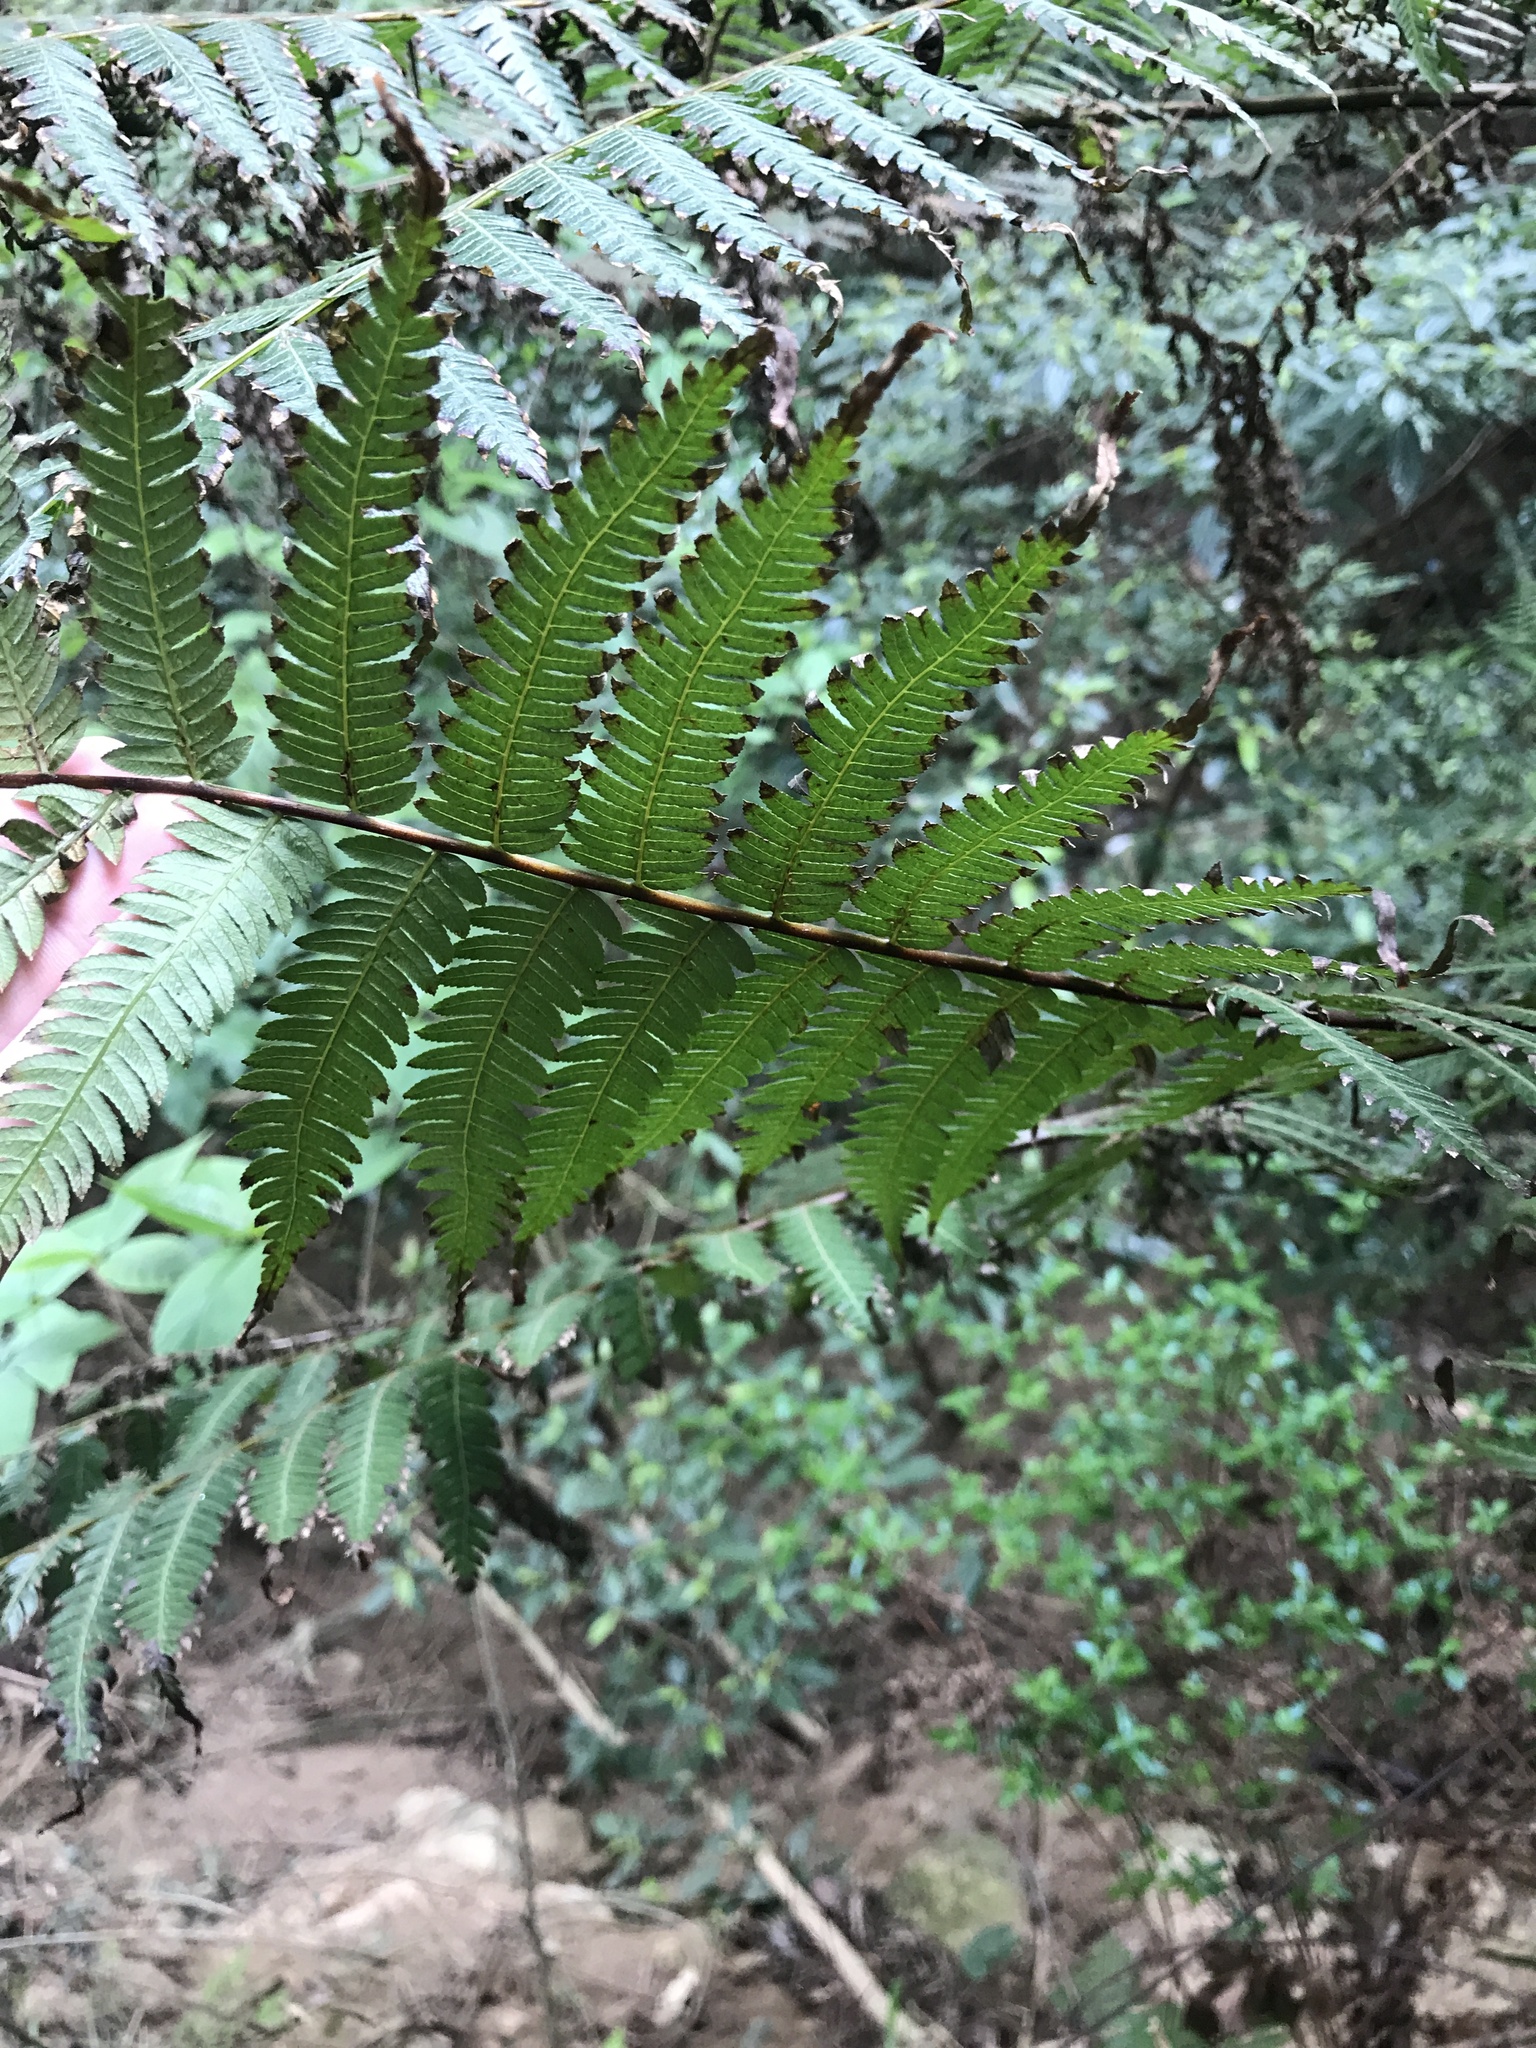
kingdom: Plantae
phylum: Tracheophyta
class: Polypodiopsida
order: Cyatheales
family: Cyatheaceae
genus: Alsophila
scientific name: Alsophila spinulosa
